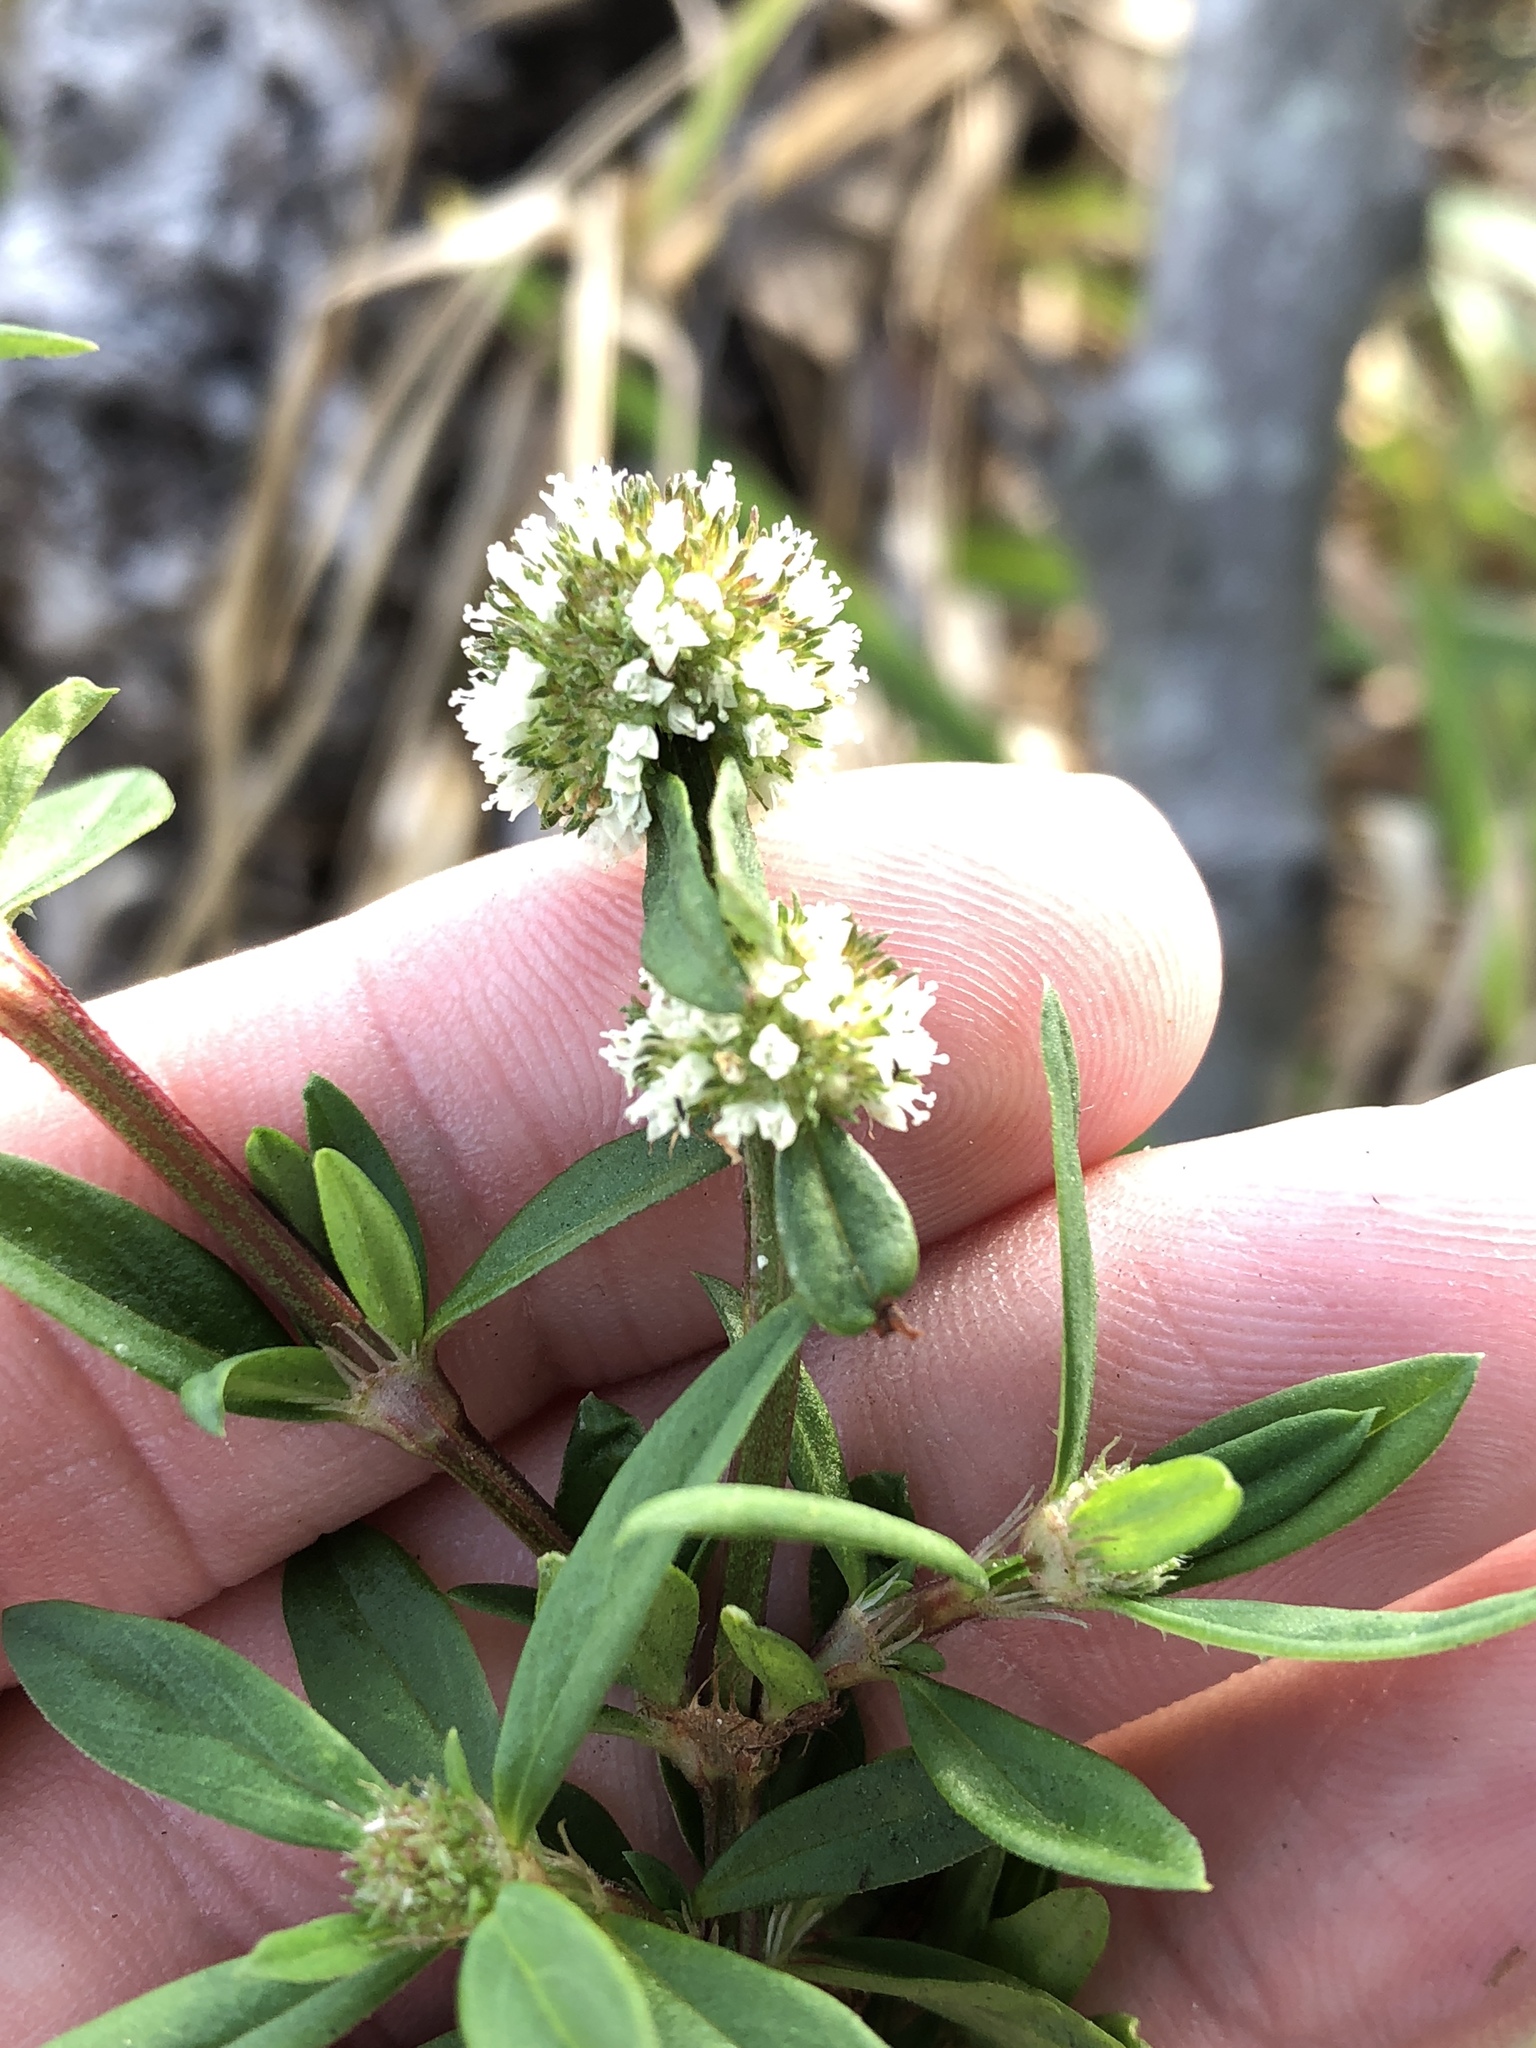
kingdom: Plantae
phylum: Tracheophyta
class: Magnoliopsida
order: Gentianales
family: Rubiaceae
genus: Spermacoce
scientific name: Spermacoce verticillata
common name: Shrubby false buttonweed
